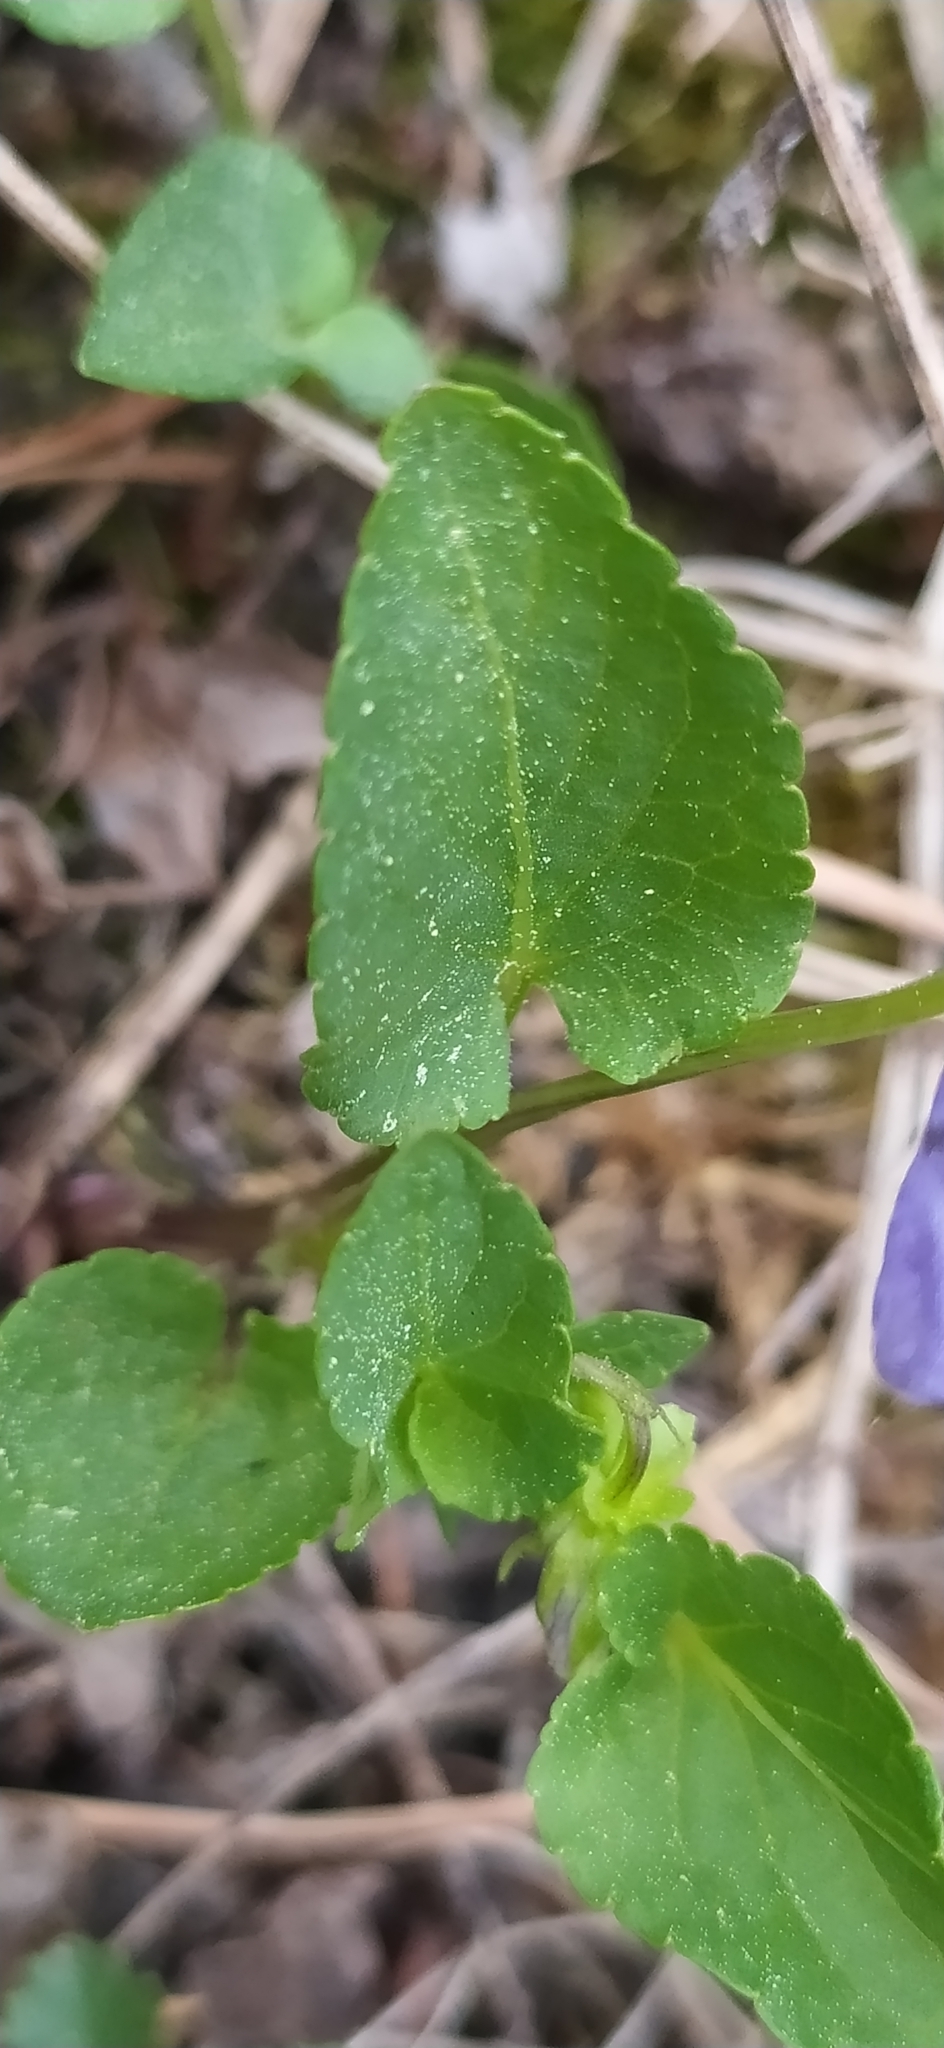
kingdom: Plantae
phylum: Tracheophyta
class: Magnoliopsida
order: Malpighiales
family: Violaceae
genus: Viola
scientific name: Viola
